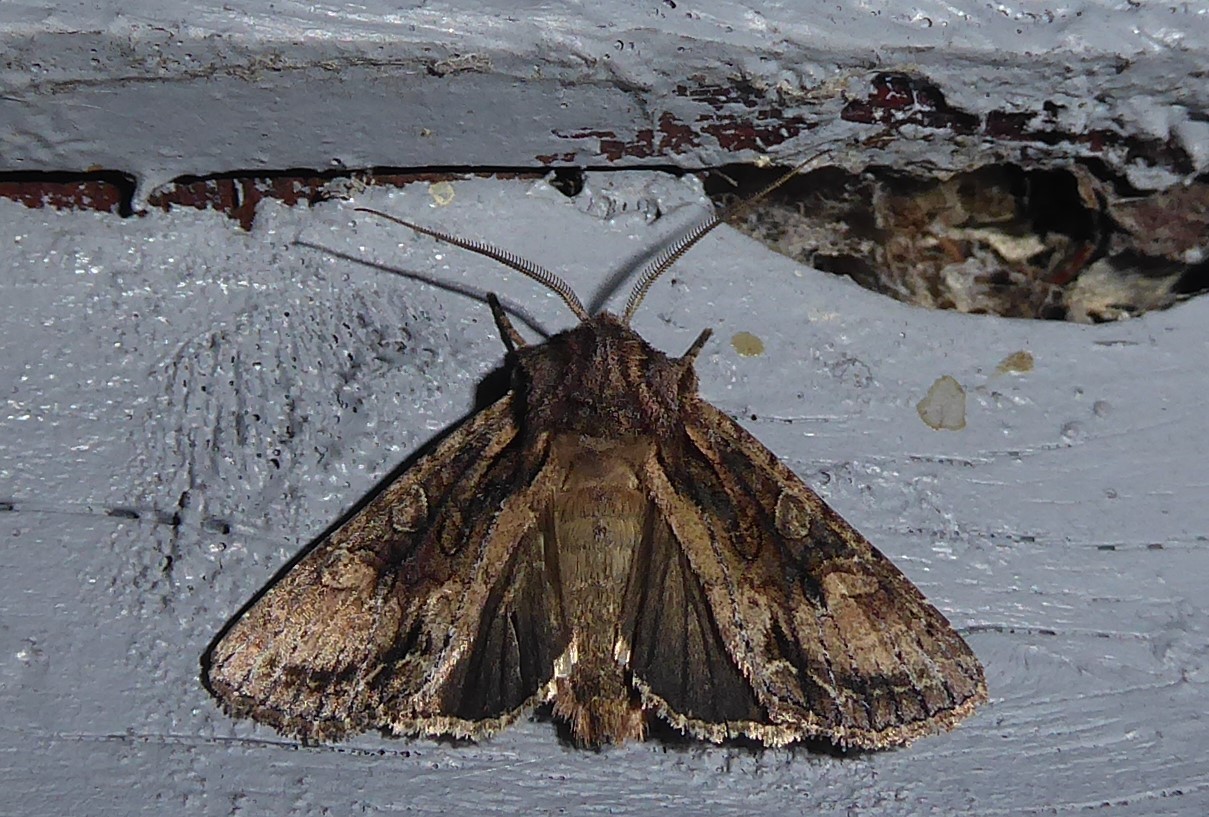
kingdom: Animalia
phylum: Arthropoda
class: Insecta
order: Lepidoptera
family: Noctuidae
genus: Ichneutica
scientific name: Ichneutica mutans
